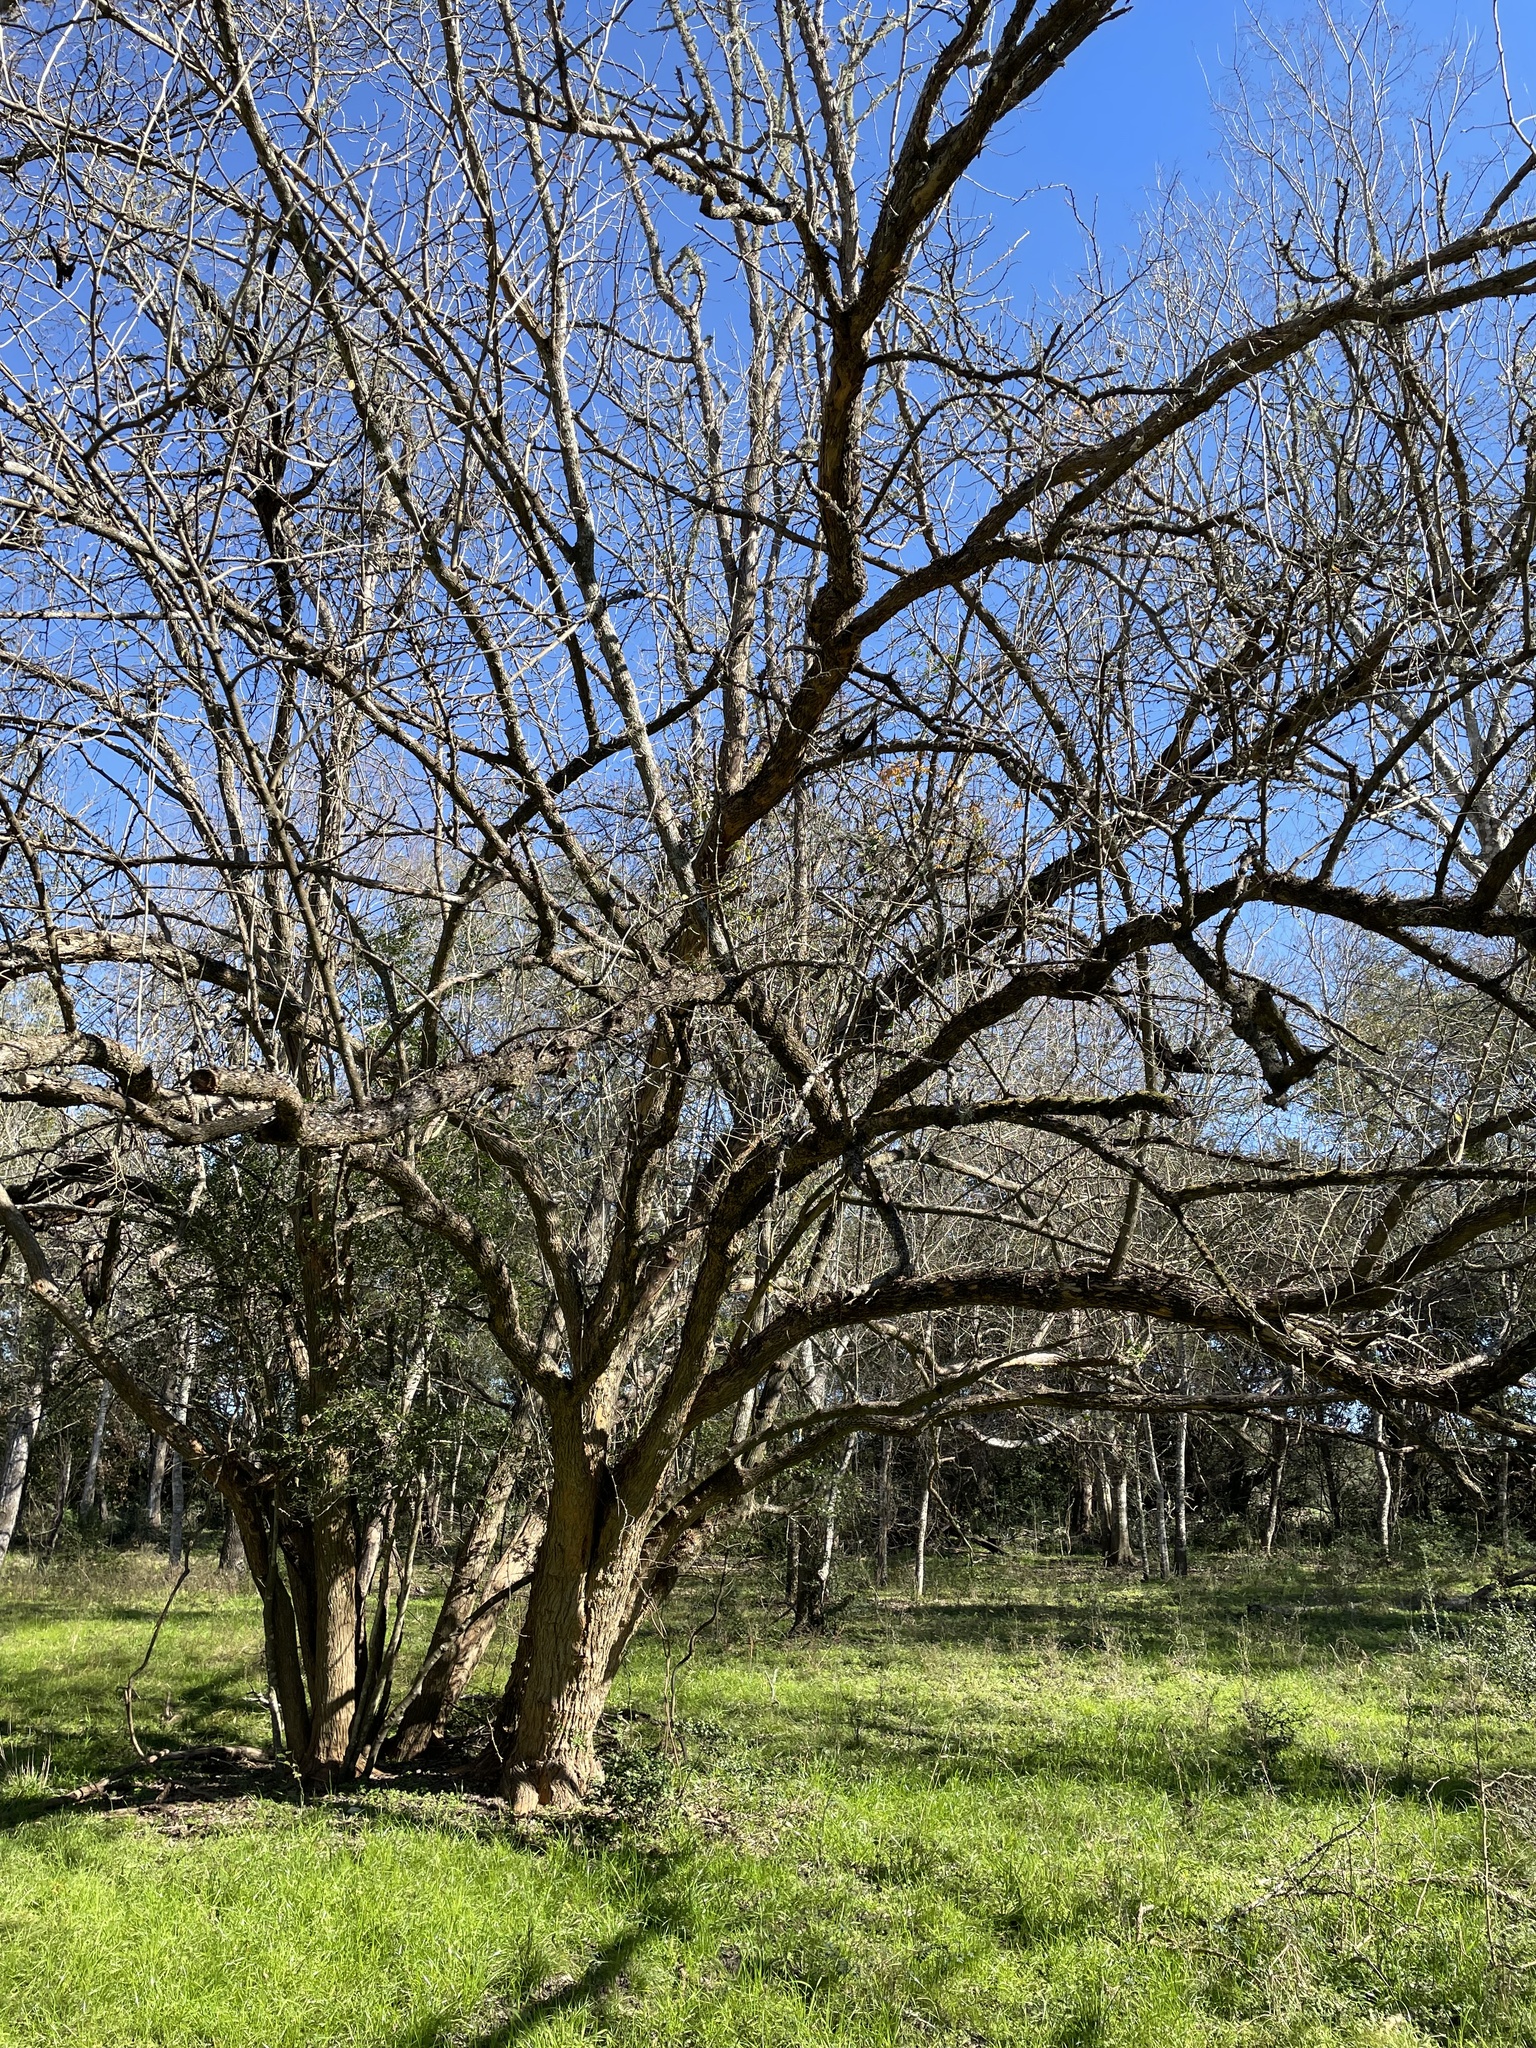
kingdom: Plantae
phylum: Tracheophyta
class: Magnoliopsida
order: Rosales
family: Moraceae
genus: Maclura
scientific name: Maclura pomifera
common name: Osage-orange
